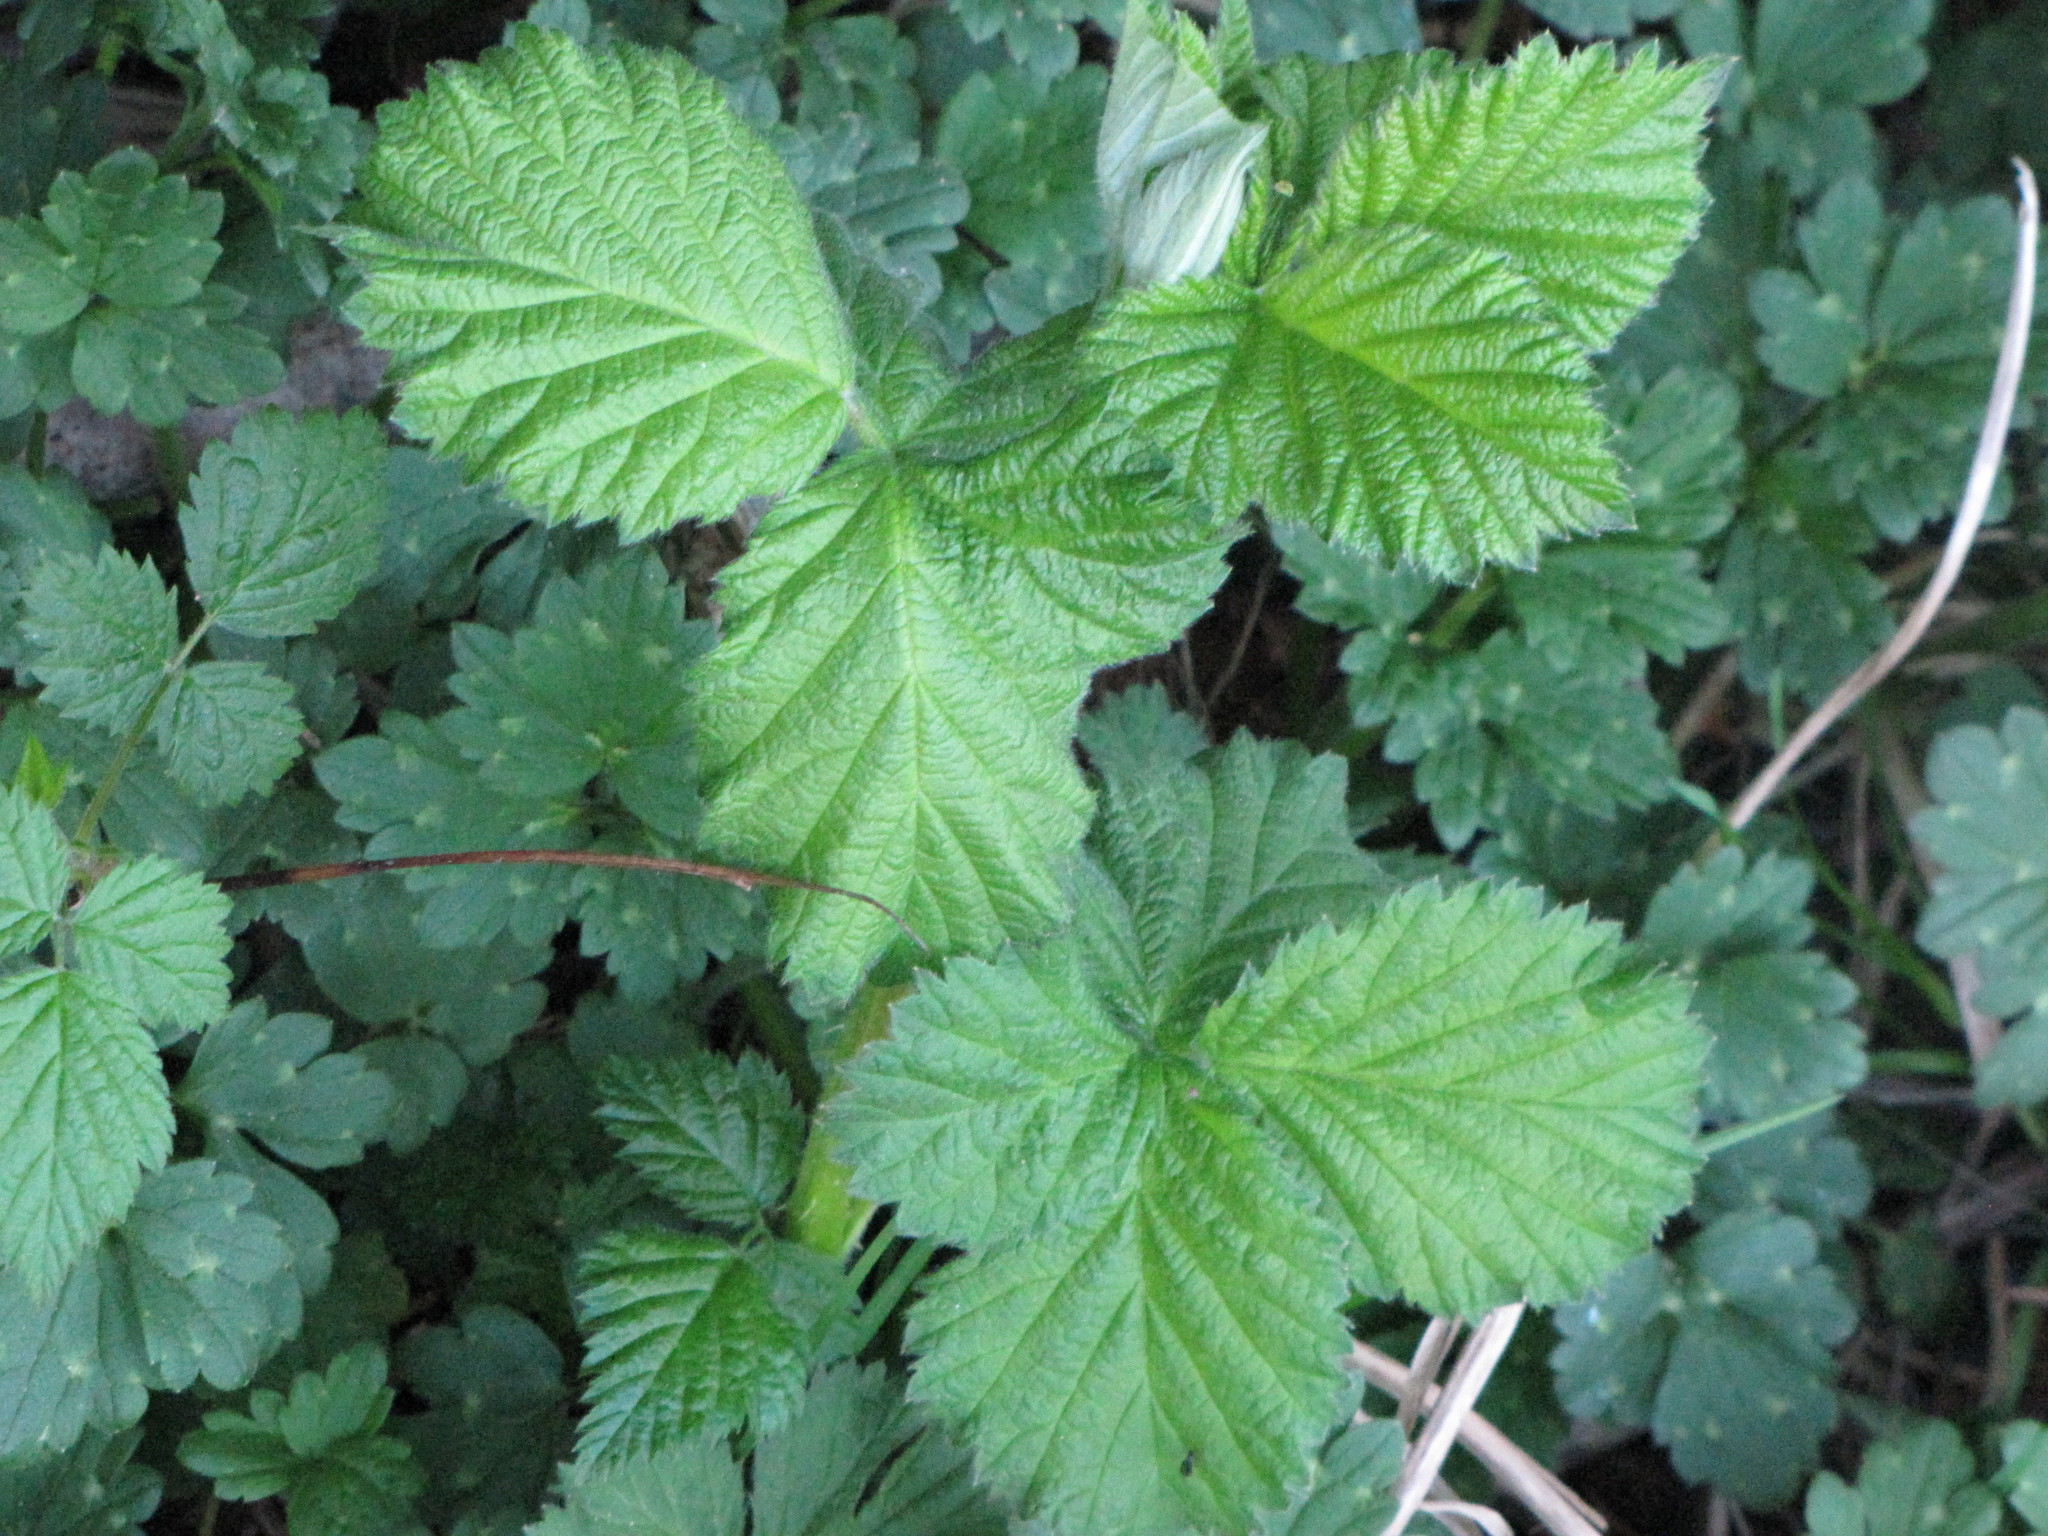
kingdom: Plantae
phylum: Tracheophyta
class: Magnoliopsida
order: Rosales
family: Rosaceae
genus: Rubus
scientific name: Rubus armeniacus
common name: Himalayan blackberry
